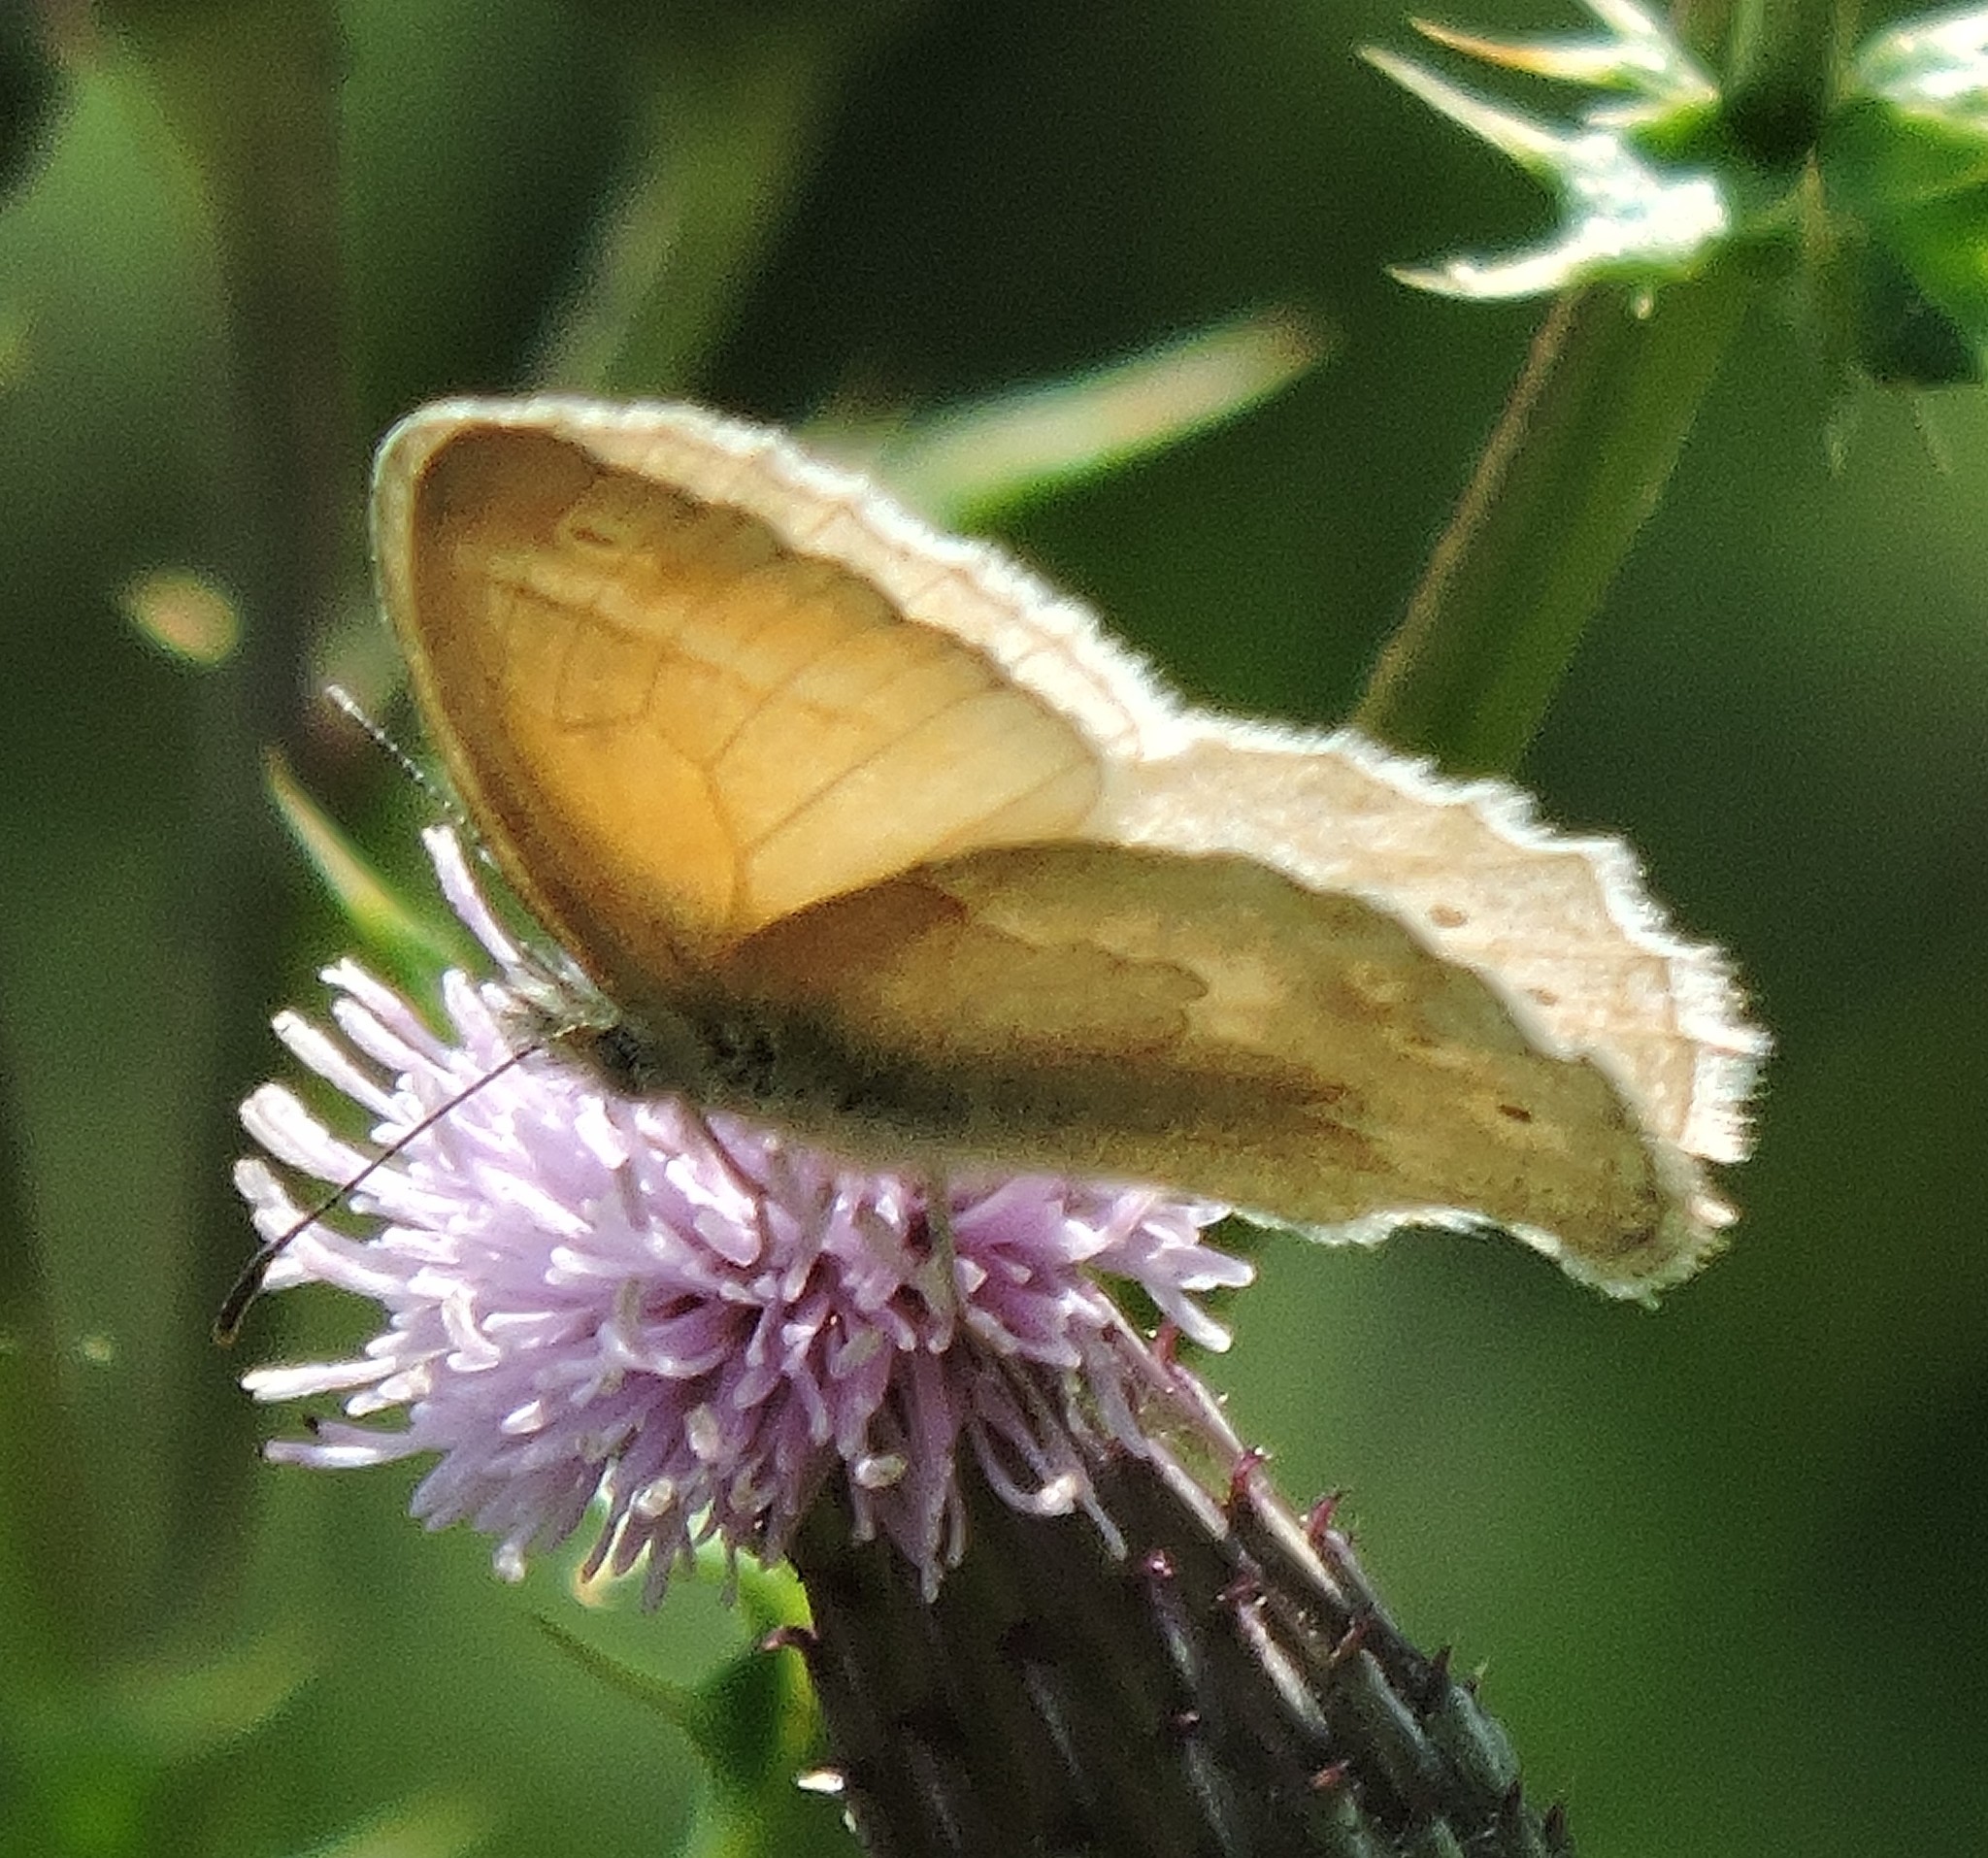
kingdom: Animalia
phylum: Arthropoda
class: Insecta
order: Lepidoptera
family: Nymphalidae
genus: Coenonympha
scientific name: Coenonympha california
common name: Common ringlet
